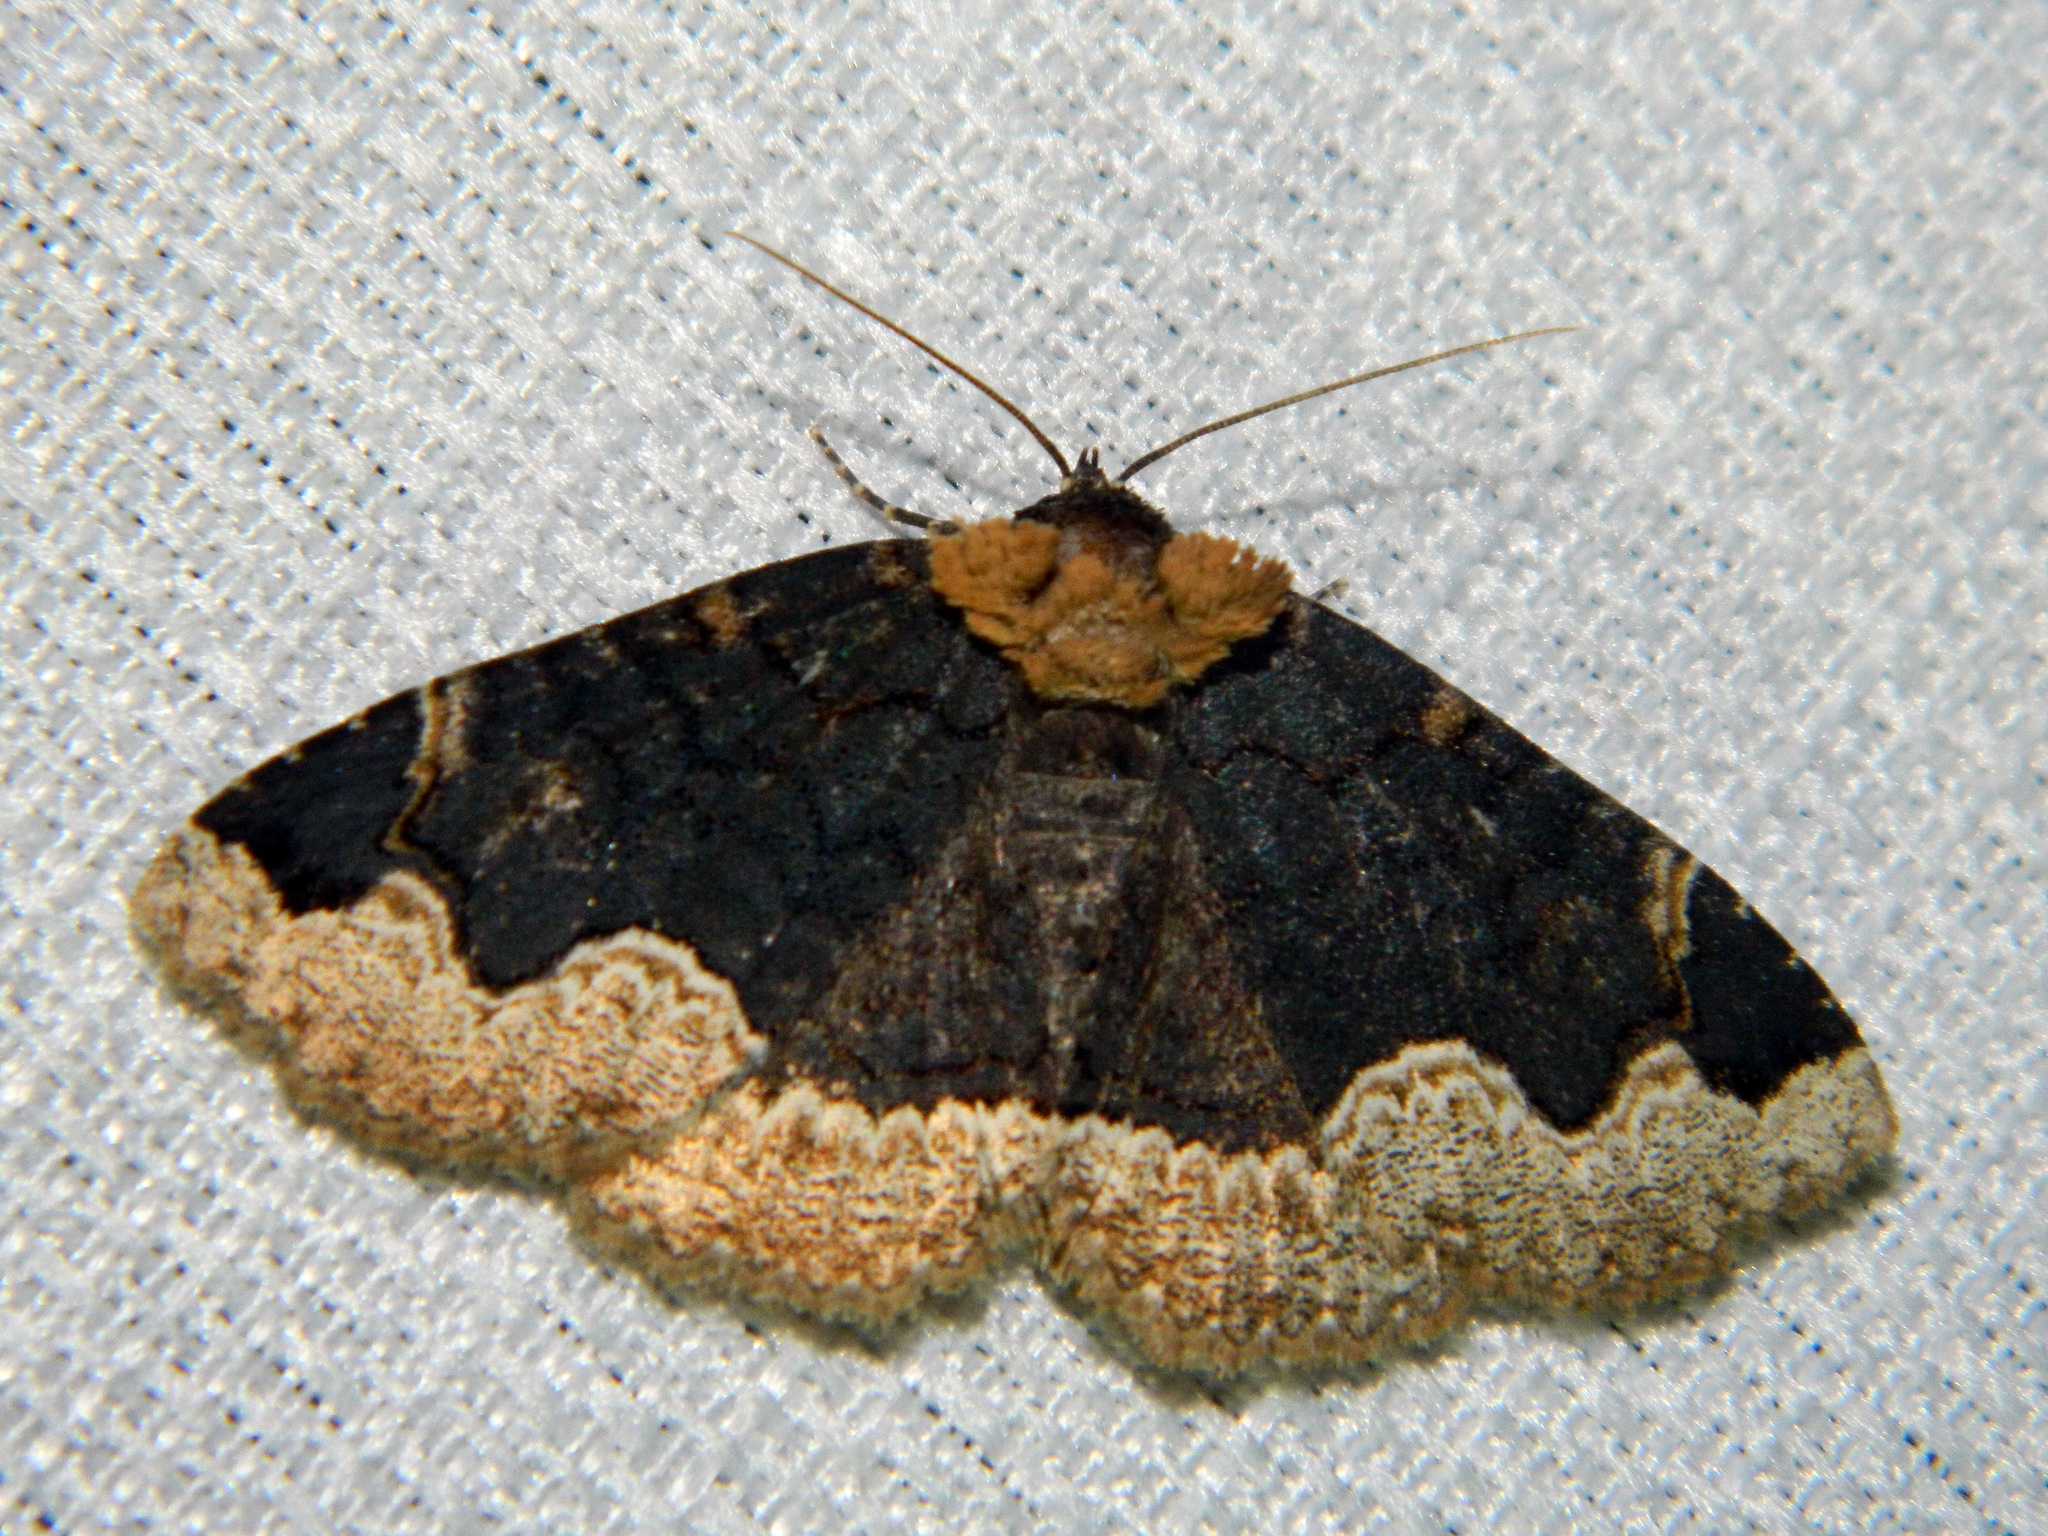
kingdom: Animalia
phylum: Arthropoda
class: Insecta
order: Lepidoptera
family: Erebidae
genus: Zale
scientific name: Zale horrida
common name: Horrid zale moth
